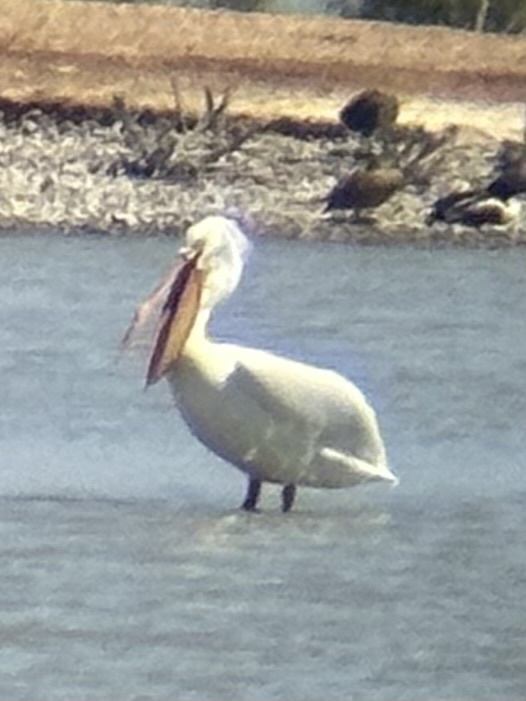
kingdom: Animalia
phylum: Chordata
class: Aves
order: Pelecaniformes
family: Pelecanidae
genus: Pelecanus
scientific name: Pelecanus erythrorhynchos
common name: American white pelican
